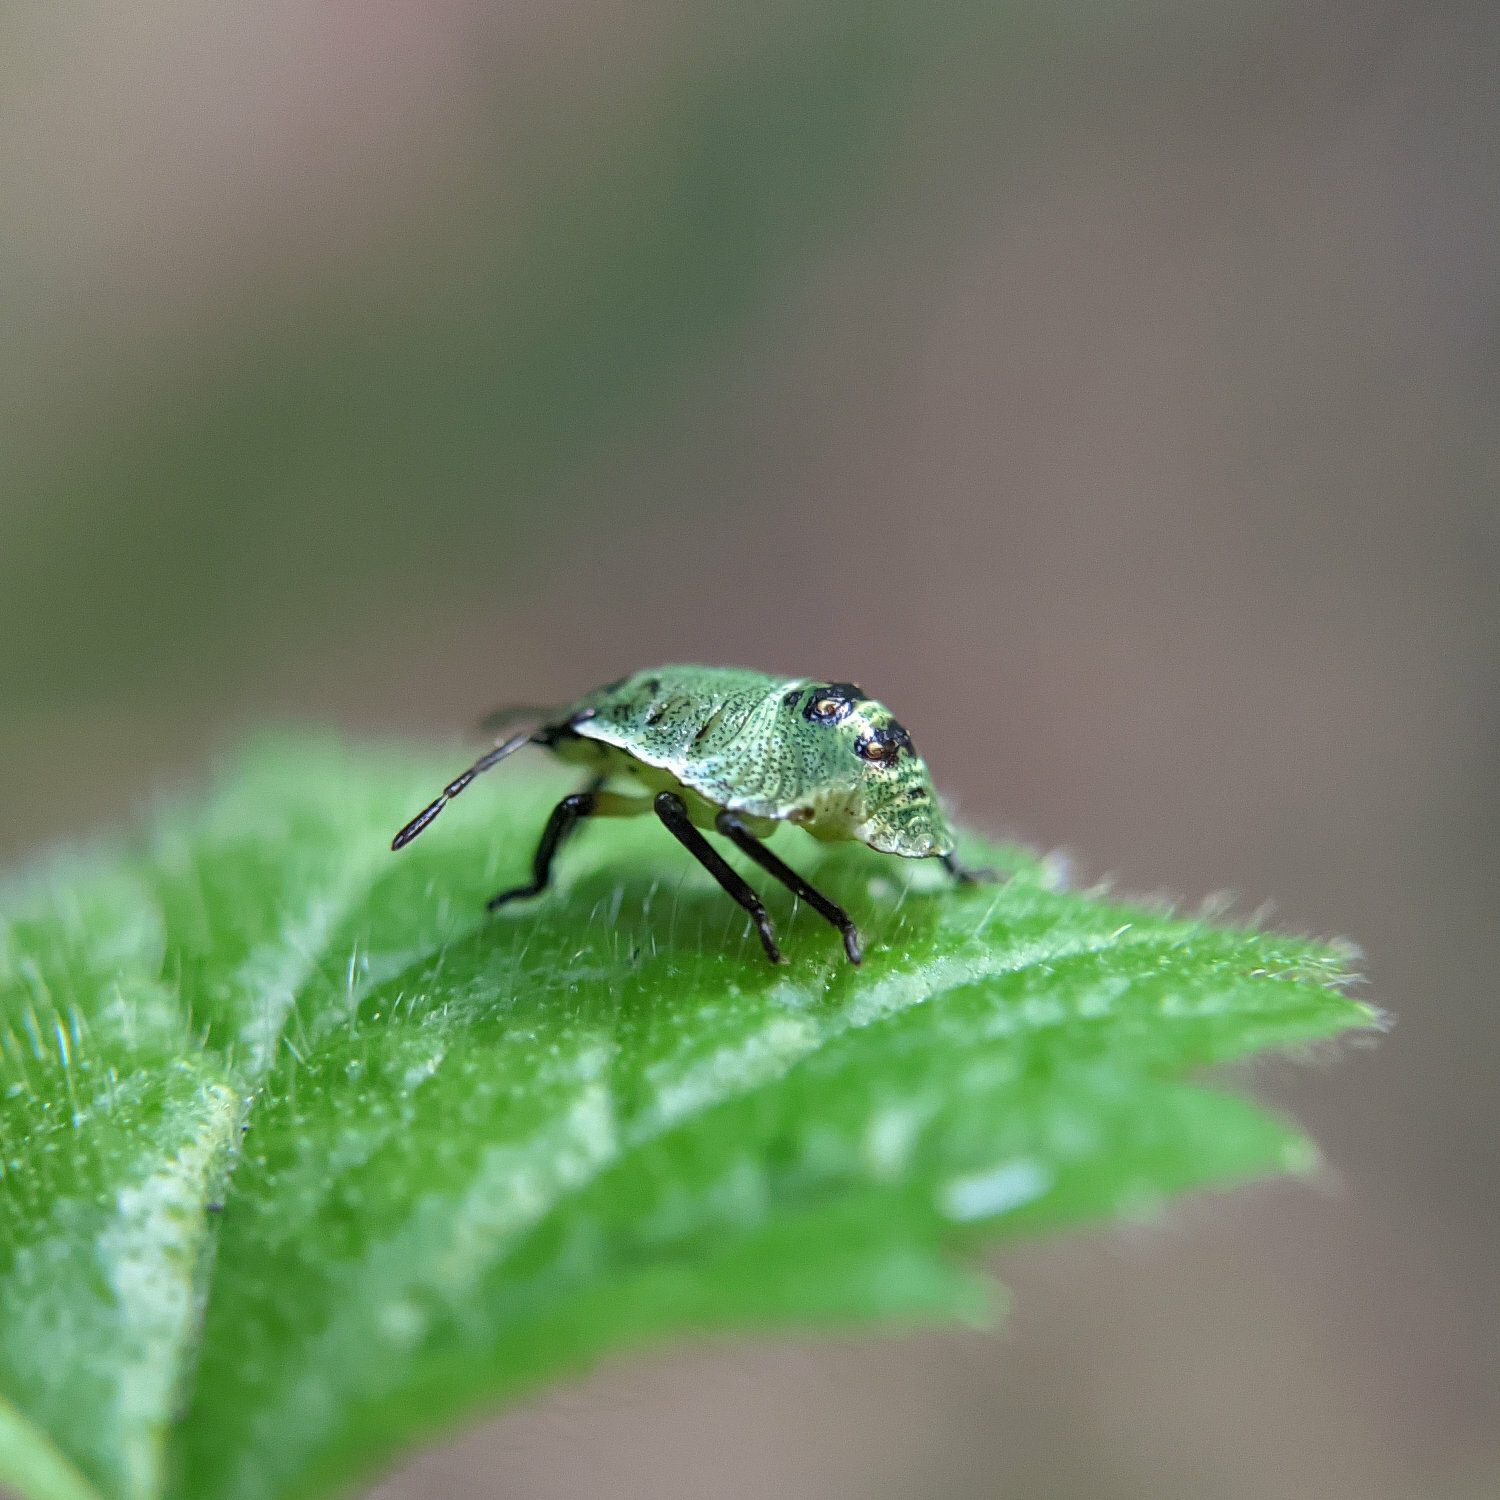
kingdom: Animalia
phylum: Arthropoda
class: Insecta
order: Hemiptera
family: Pentatomidae
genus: Palomena
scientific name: Palomena prasina
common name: Green shieldbug
